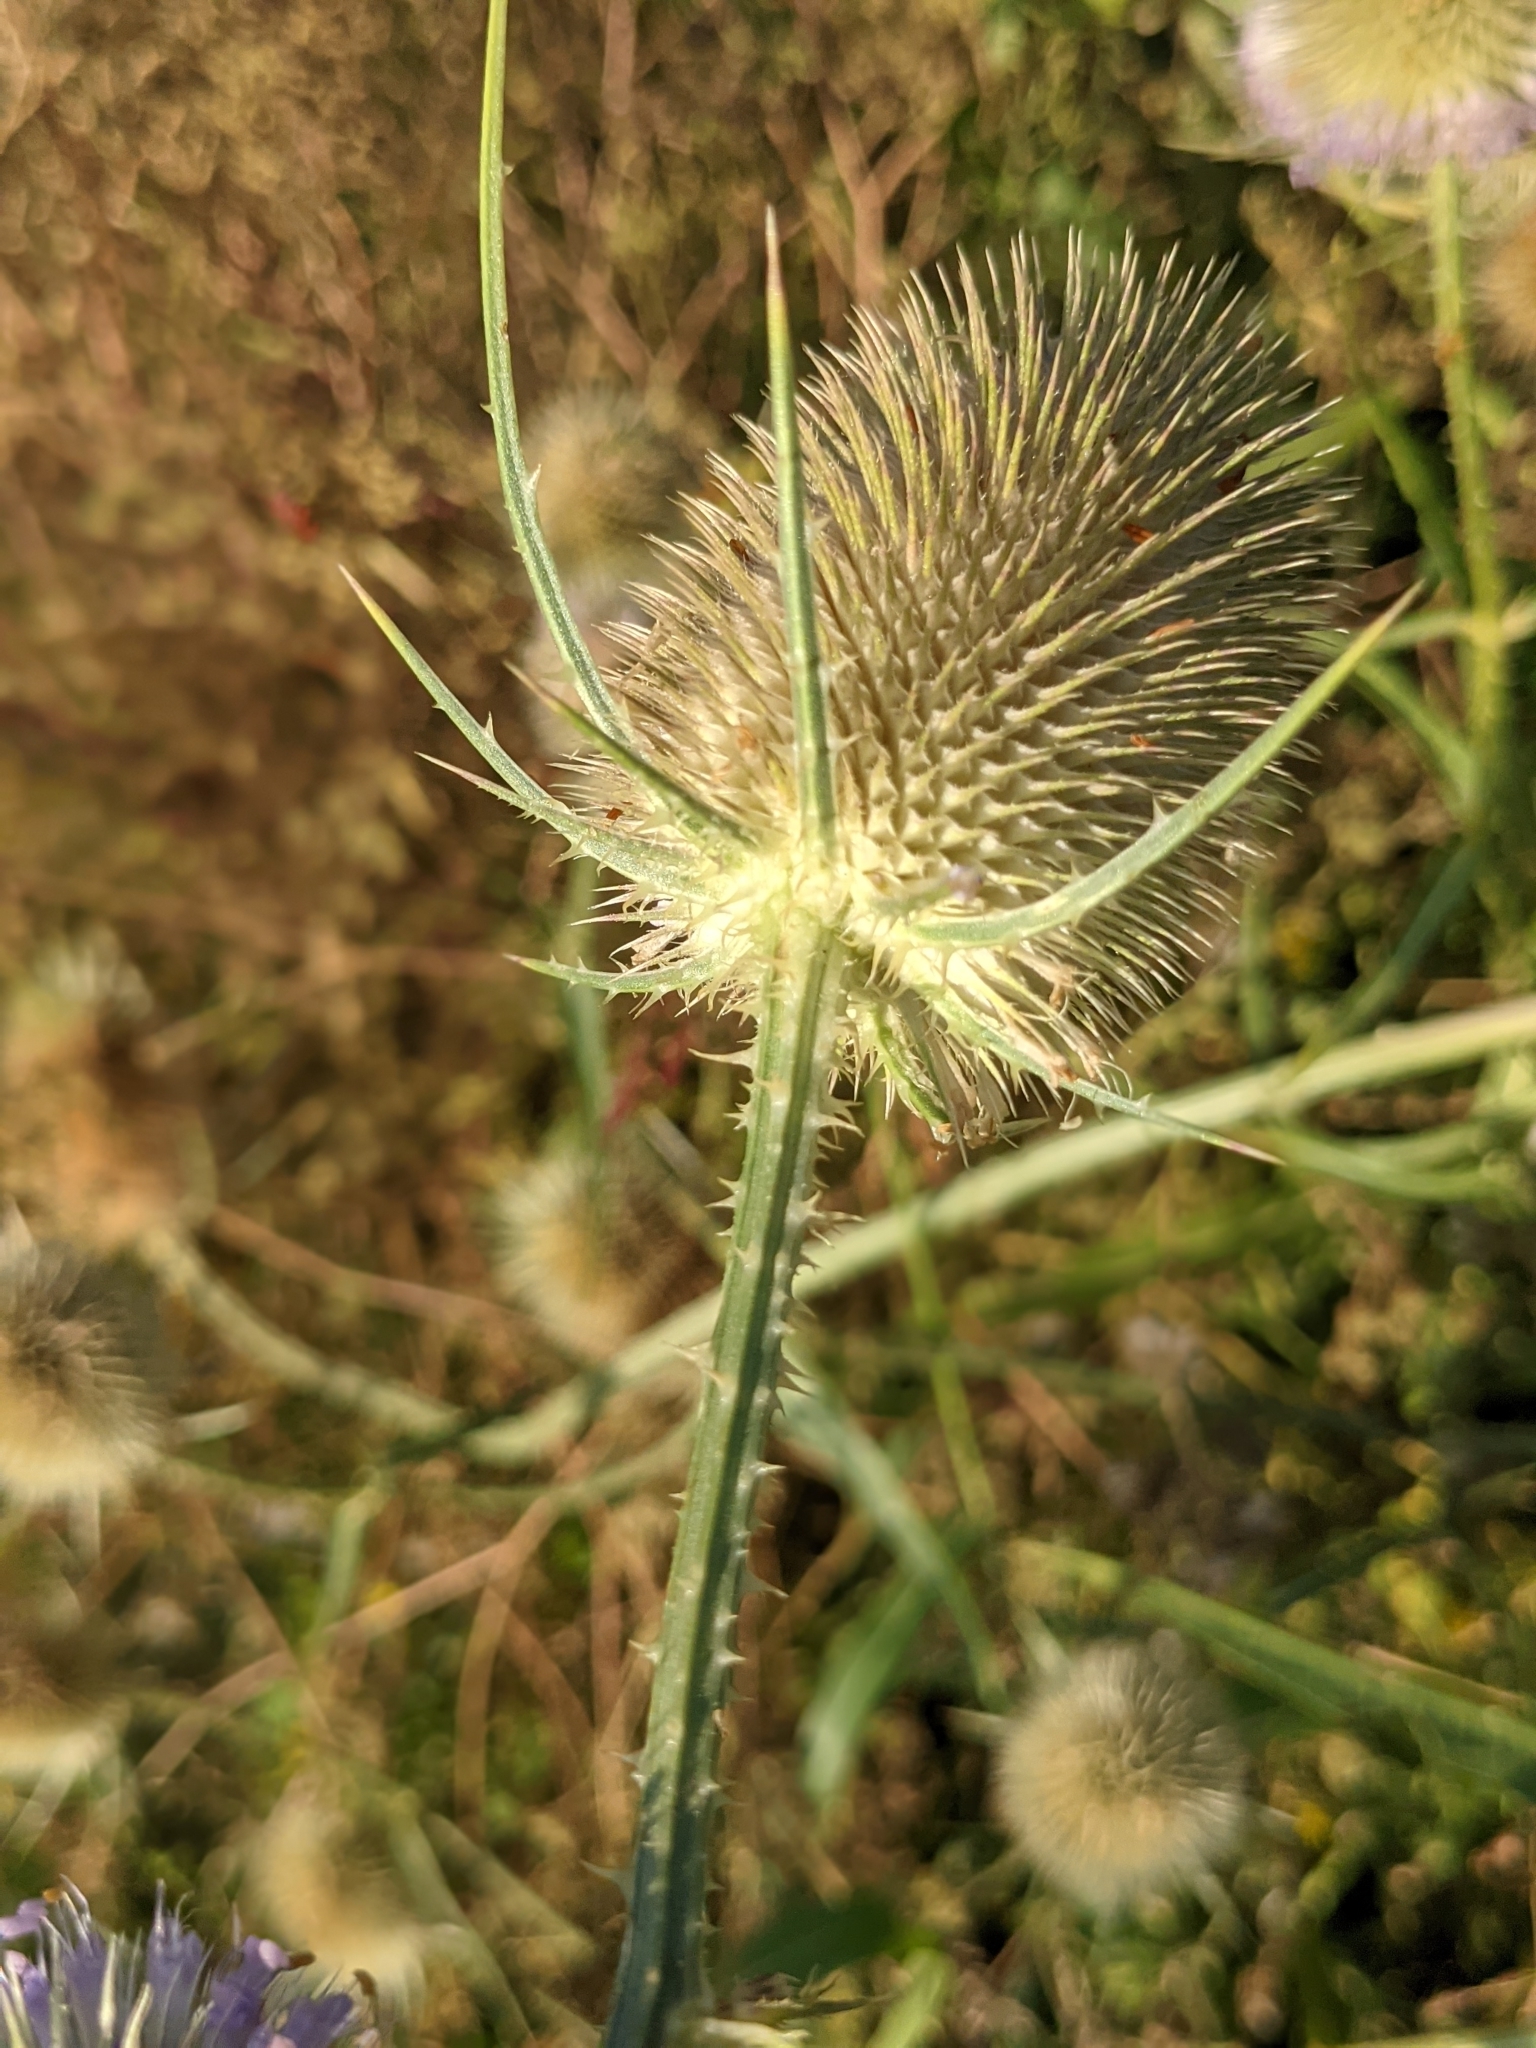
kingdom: Plantae
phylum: Tracheophyta
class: Magnoliopsida
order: Dipsacales
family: Caprifoliaceae
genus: Dipsacus
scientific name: Dipsacus fullonum
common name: Teasel
